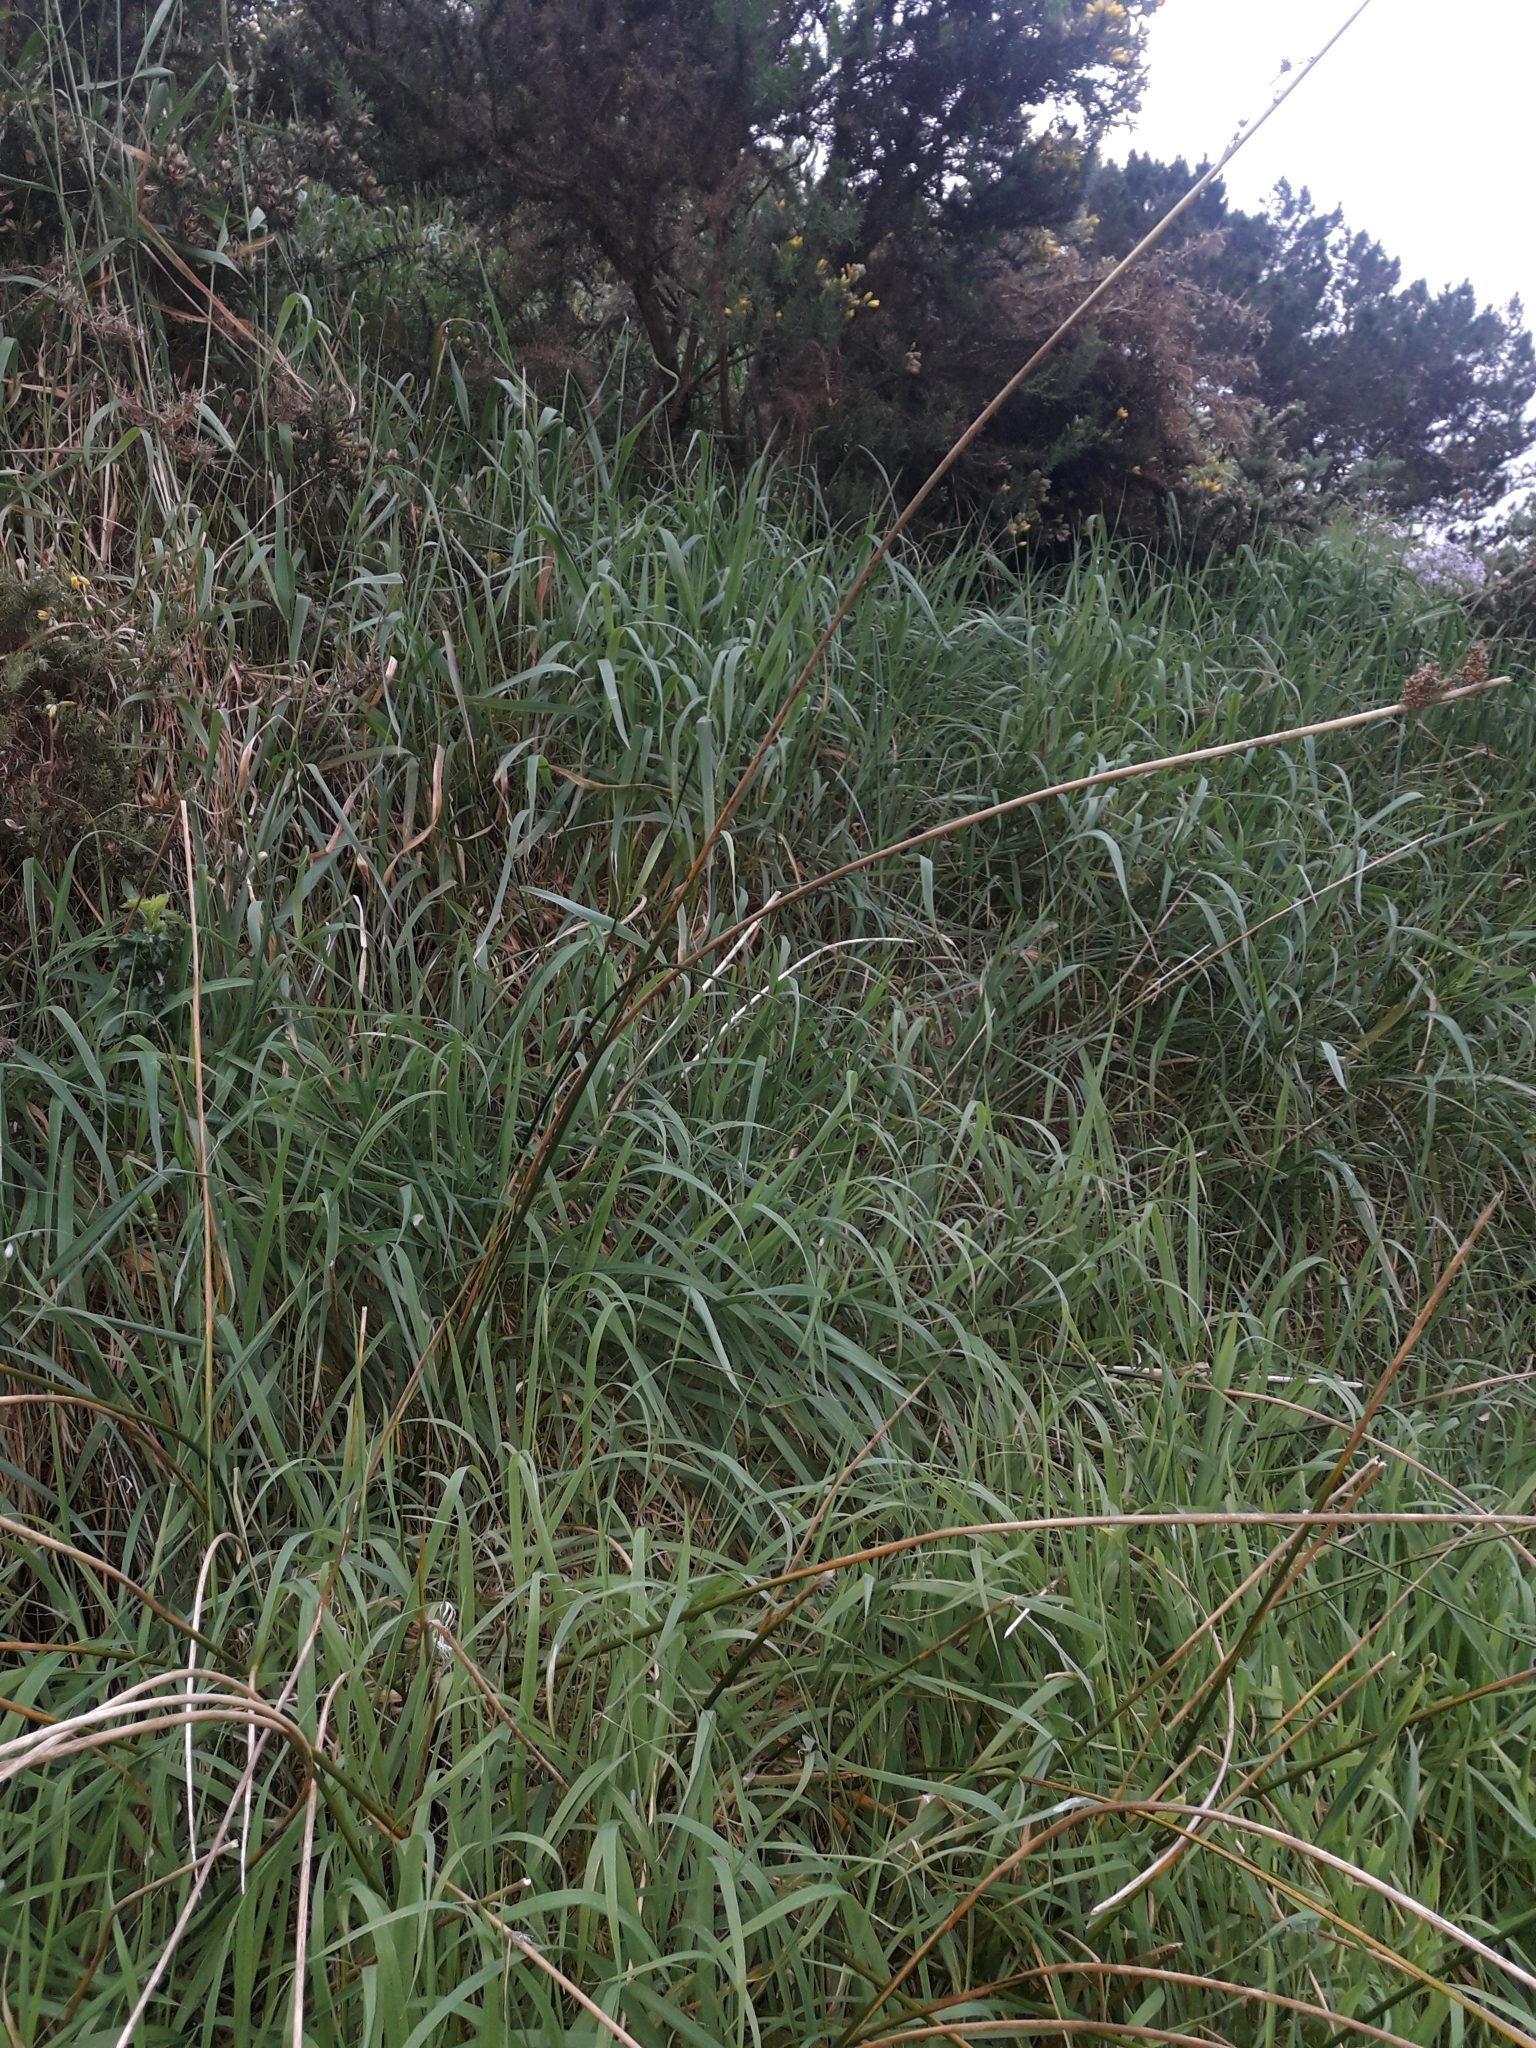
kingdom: Plantae
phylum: Tracheophyta
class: Liliopsida
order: Poales
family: Juncaceae
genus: Juncus
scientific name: Juncus pallidus
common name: Great soft-rush
